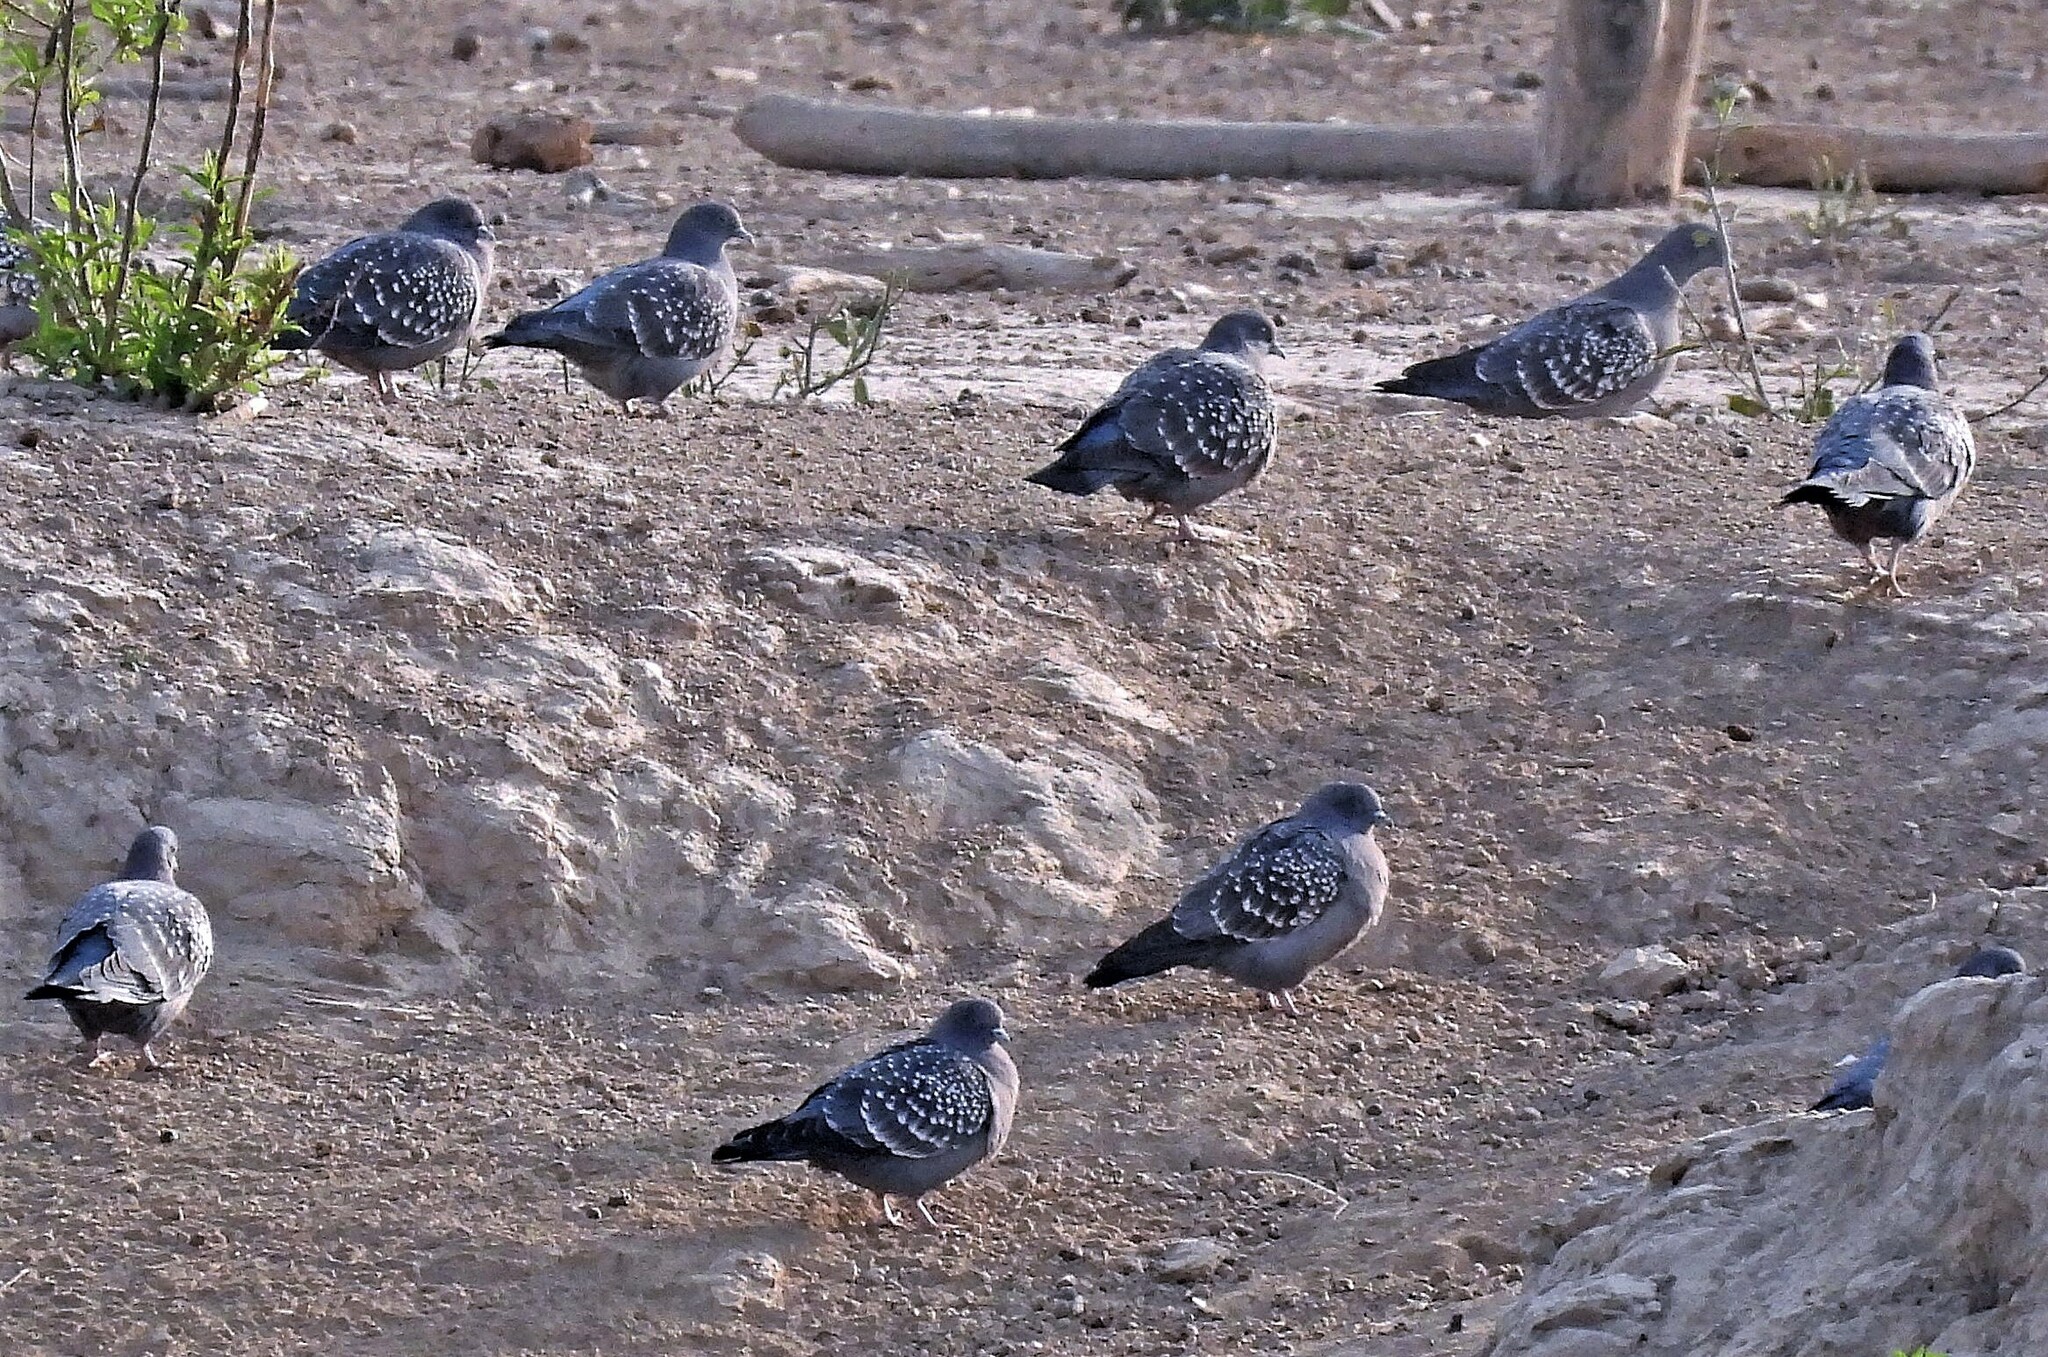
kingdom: Animalia
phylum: Chordata
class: Aves
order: Columbiformes
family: Columbidae
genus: Patagioenas
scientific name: Patagioenas maculosa
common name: Spot-winged pigeon
